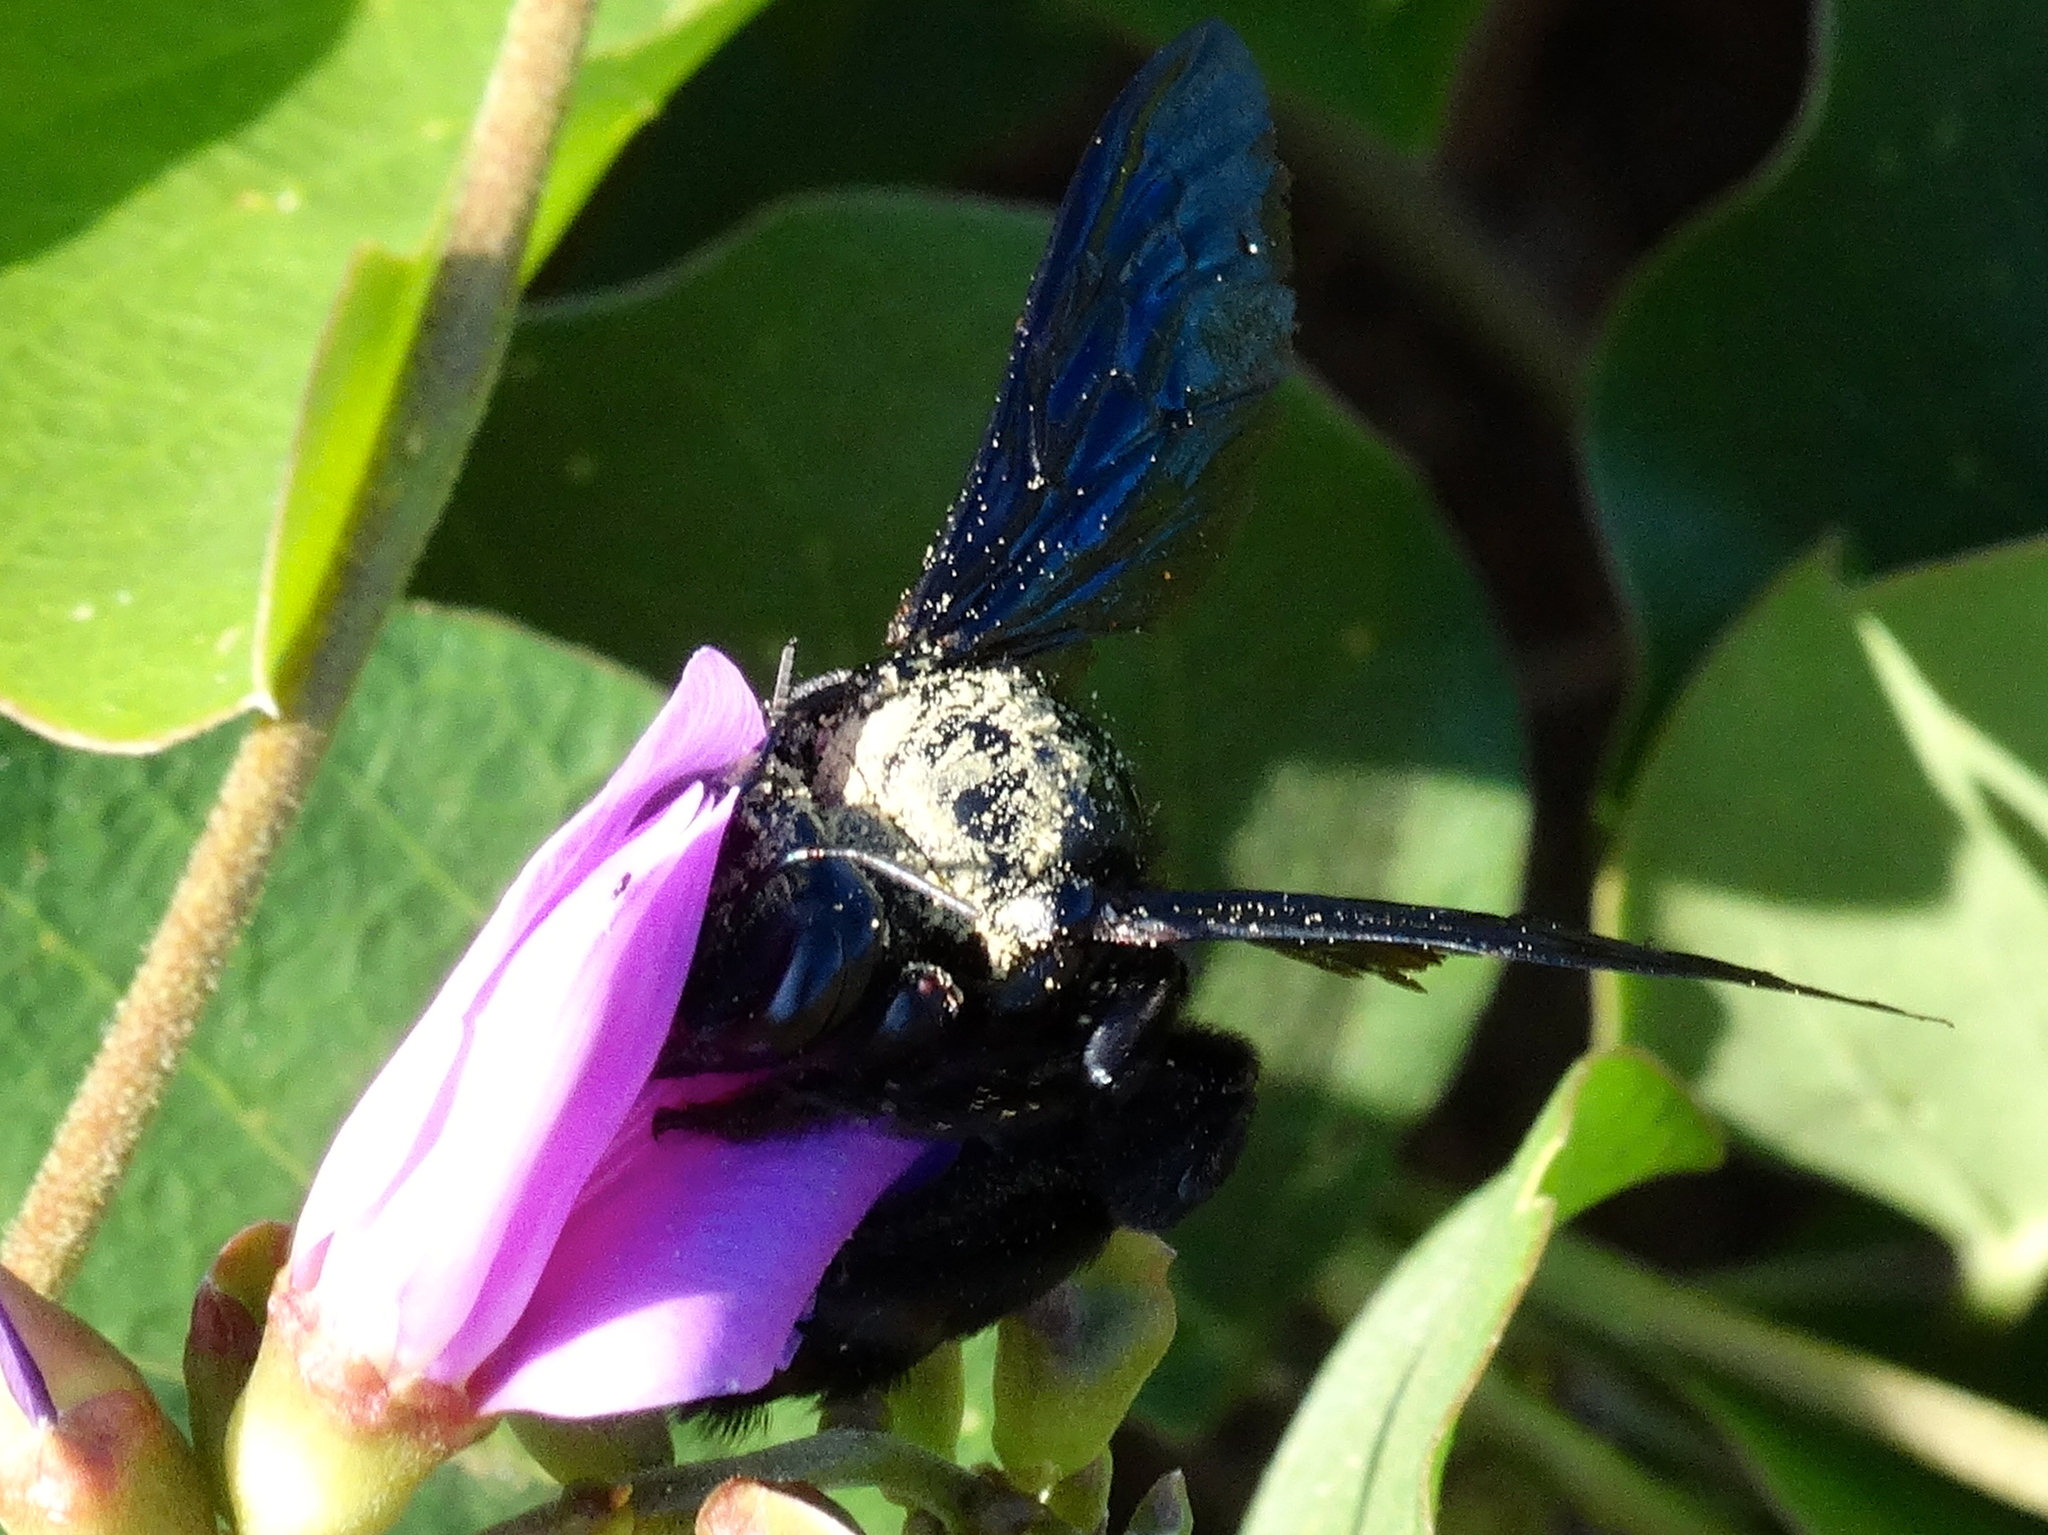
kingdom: Animalia
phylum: Arthropoda
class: Insecta
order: Hymenoptera
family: Apidae
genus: Xylocopa
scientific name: Xylocopa fimbriata
